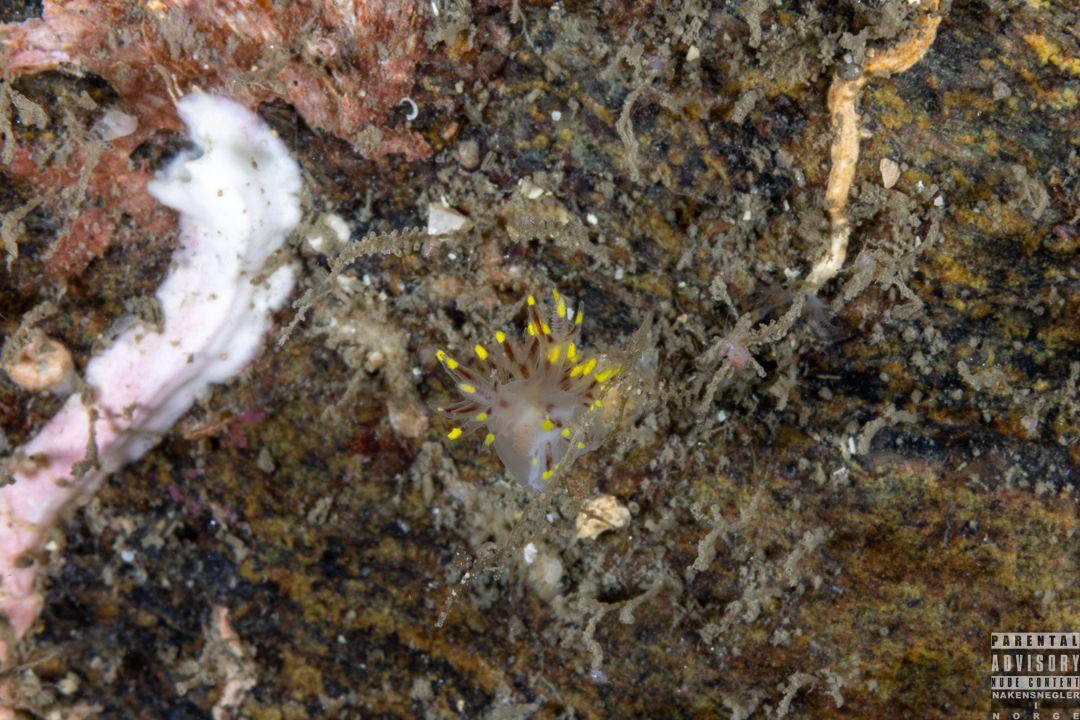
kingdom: Animalia
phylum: Mollusca
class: Gastropoda
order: Nudibranchia
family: Dendronotidae
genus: Dendronotus
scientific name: Dendronotus arcticus
